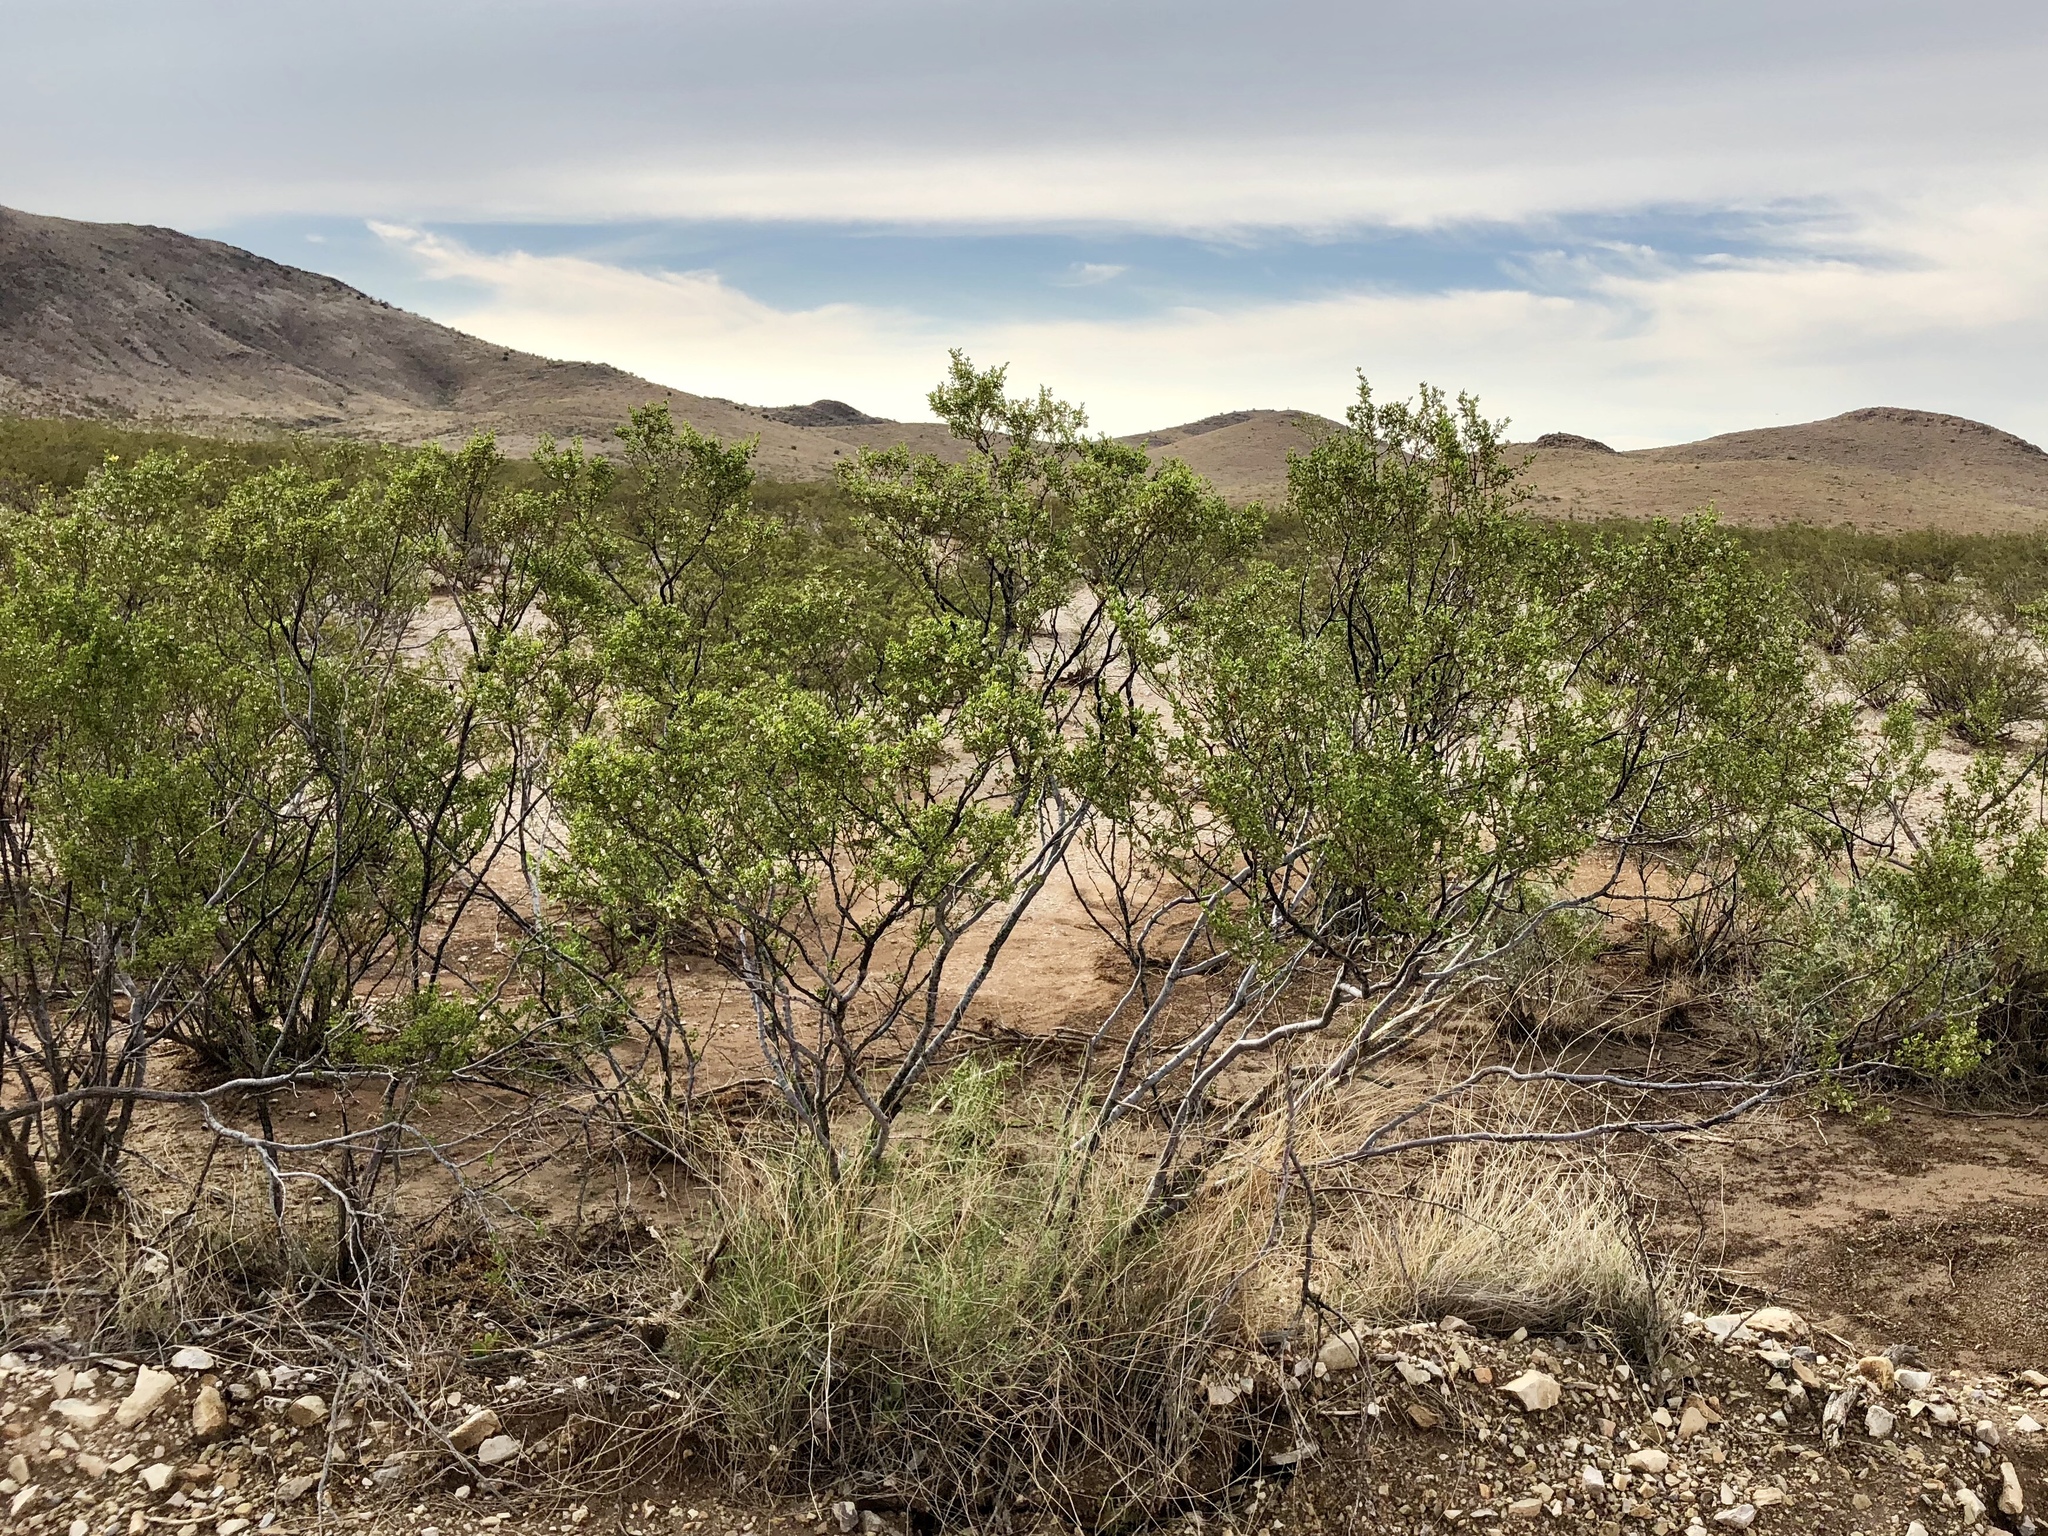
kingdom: Plantae
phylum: Tracheophyta
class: Magnoliopsida
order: Zygophyllales
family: Zygophyllaceae
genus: Larrea
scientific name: Larrea tridentata
